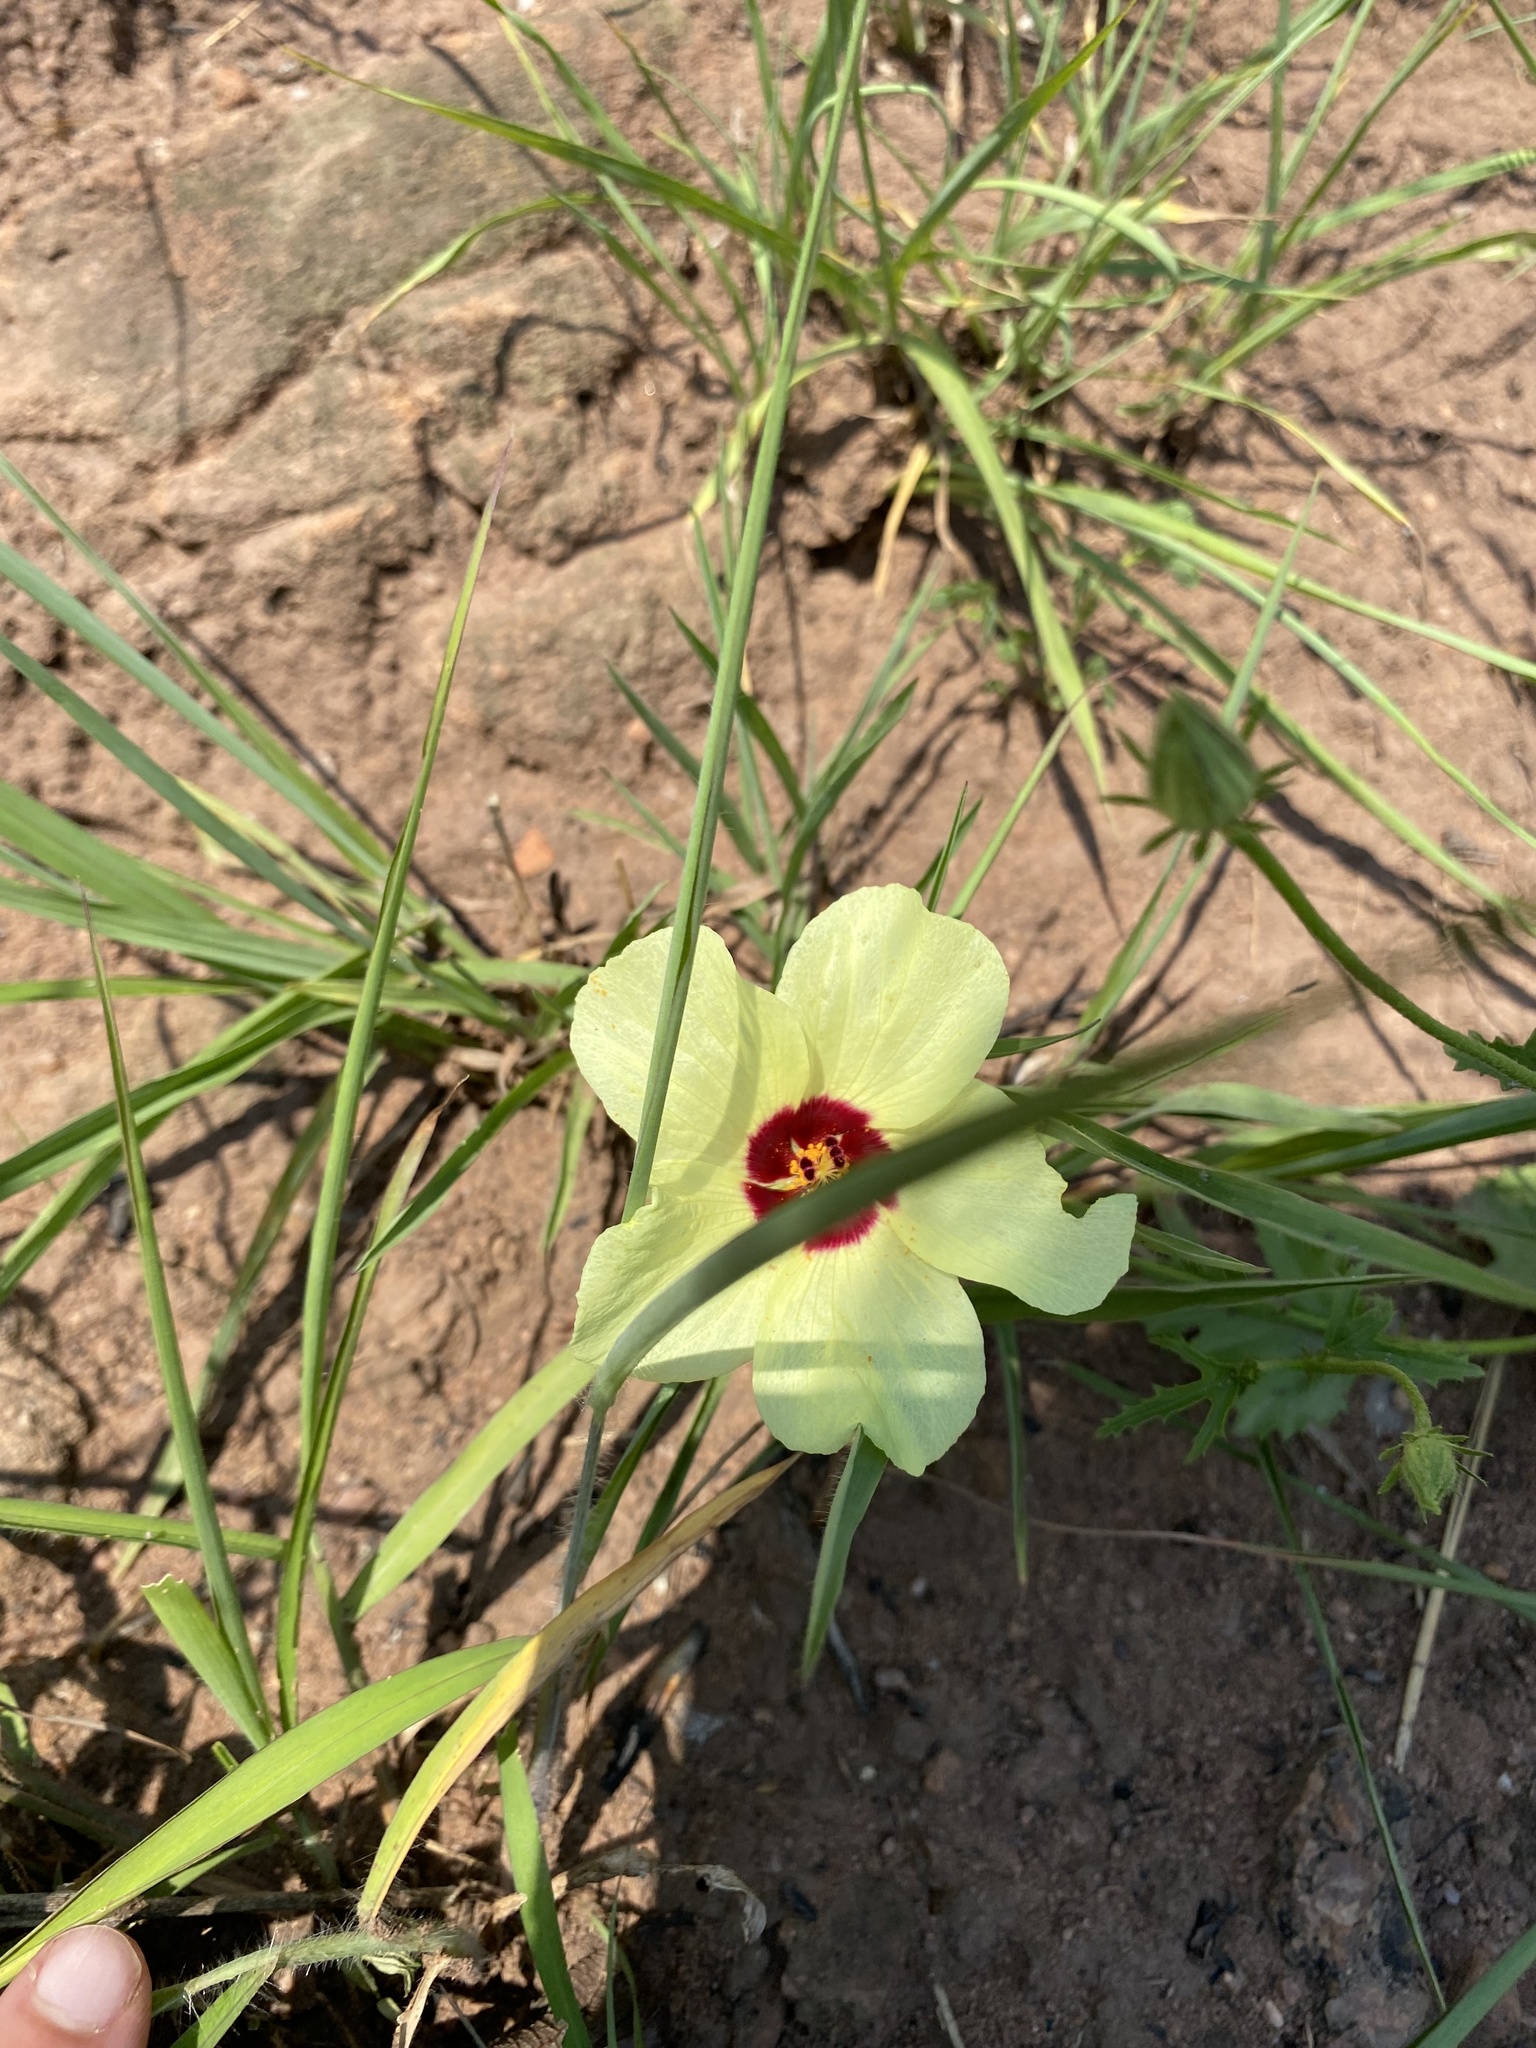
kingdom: Plantae
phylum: Tracheophyta
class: Magnoliopsida
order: Malvales
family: Malvaceae
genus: Hibiscus
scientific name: Hibiscus aethiopicus
